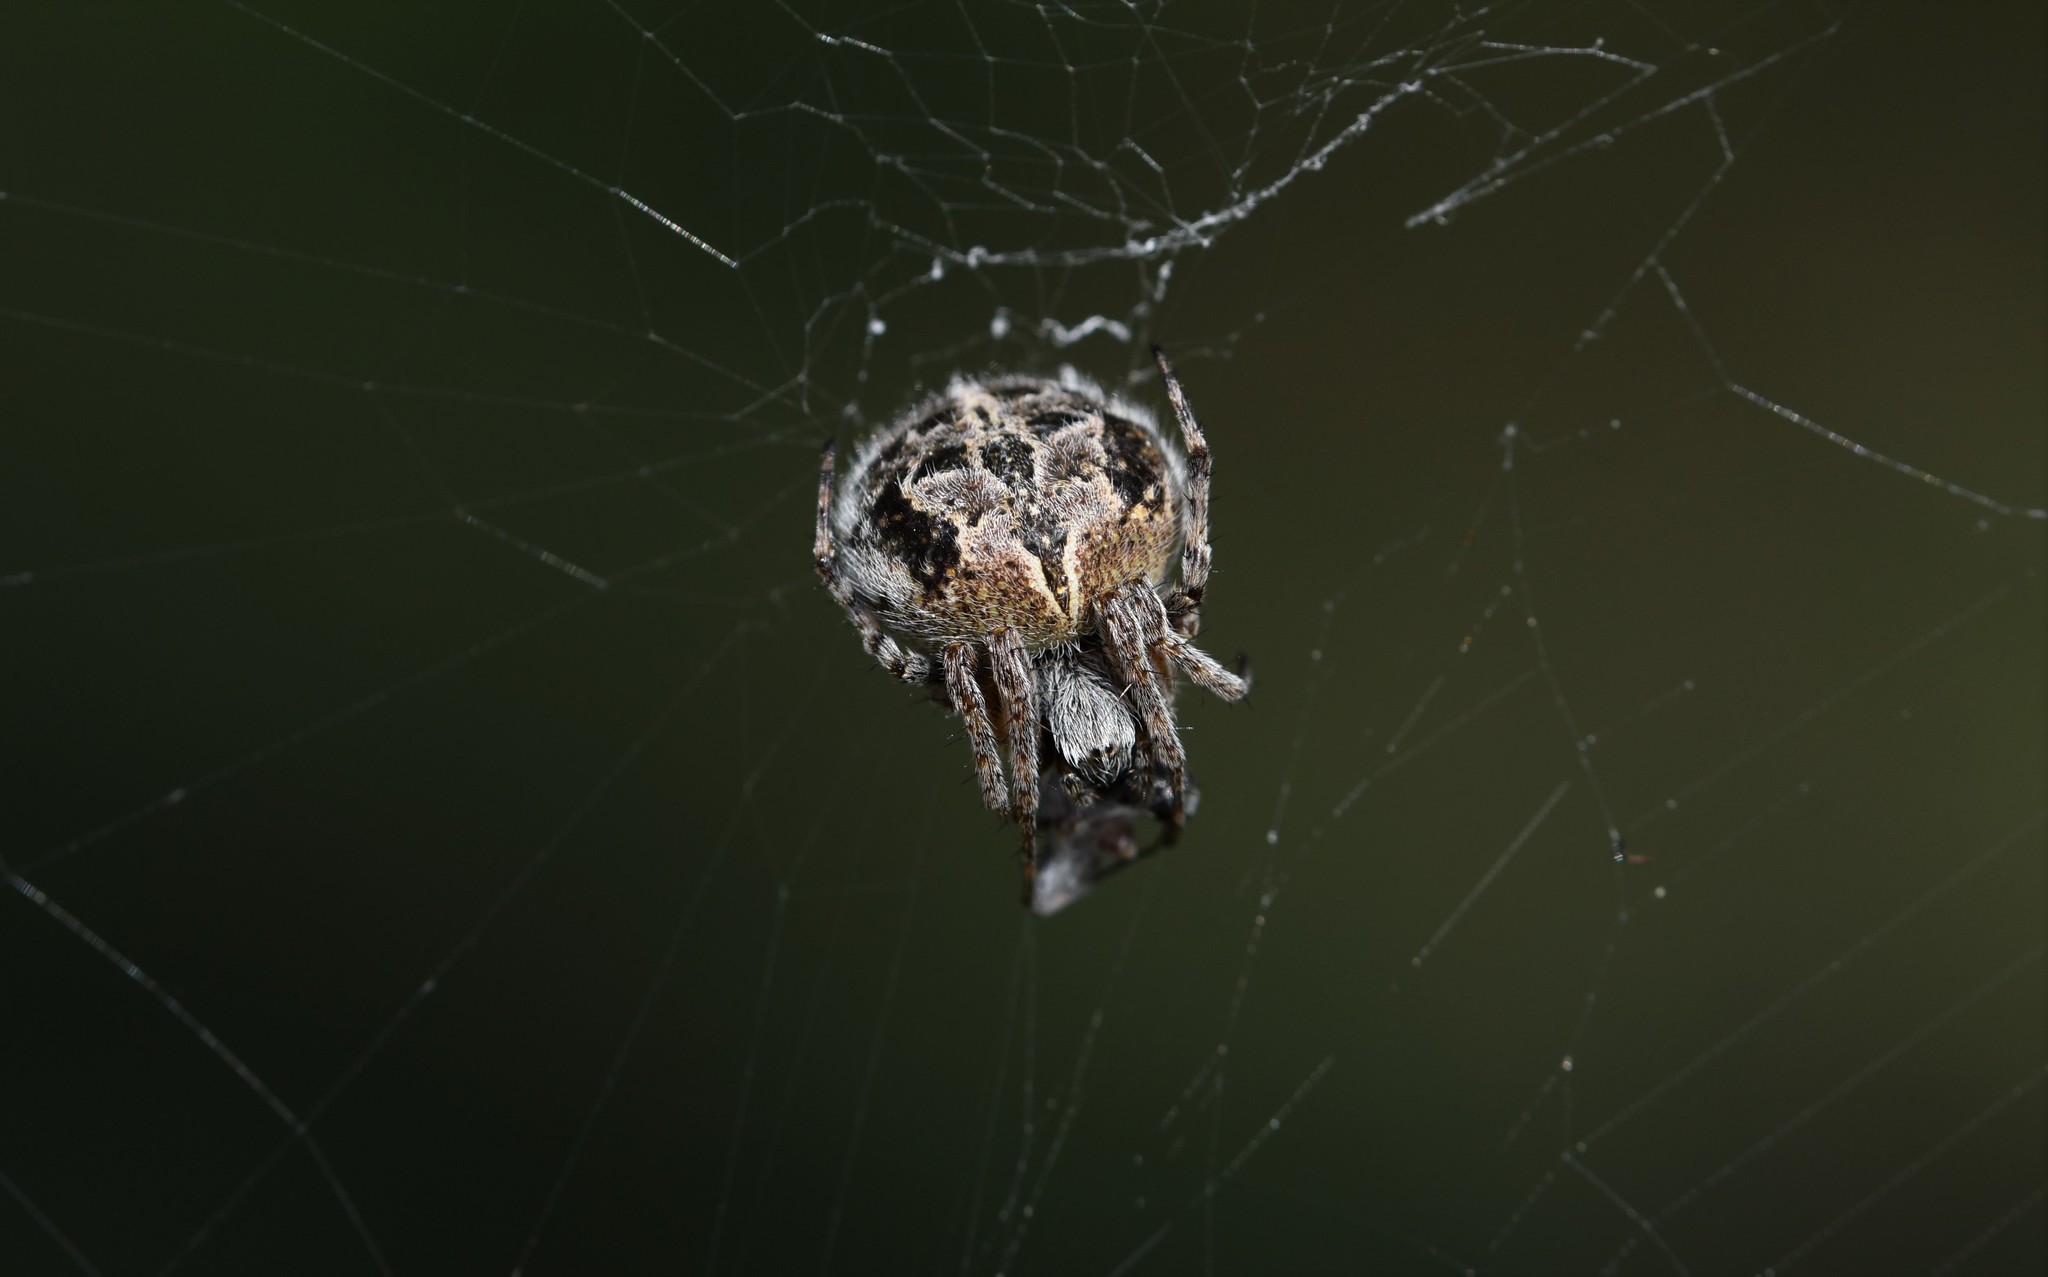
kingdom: Animalia
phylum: Arthropoda
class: Arachnida
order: Araneae
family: Araneidae
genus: Agalenatea
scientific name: Agalenatea redii
